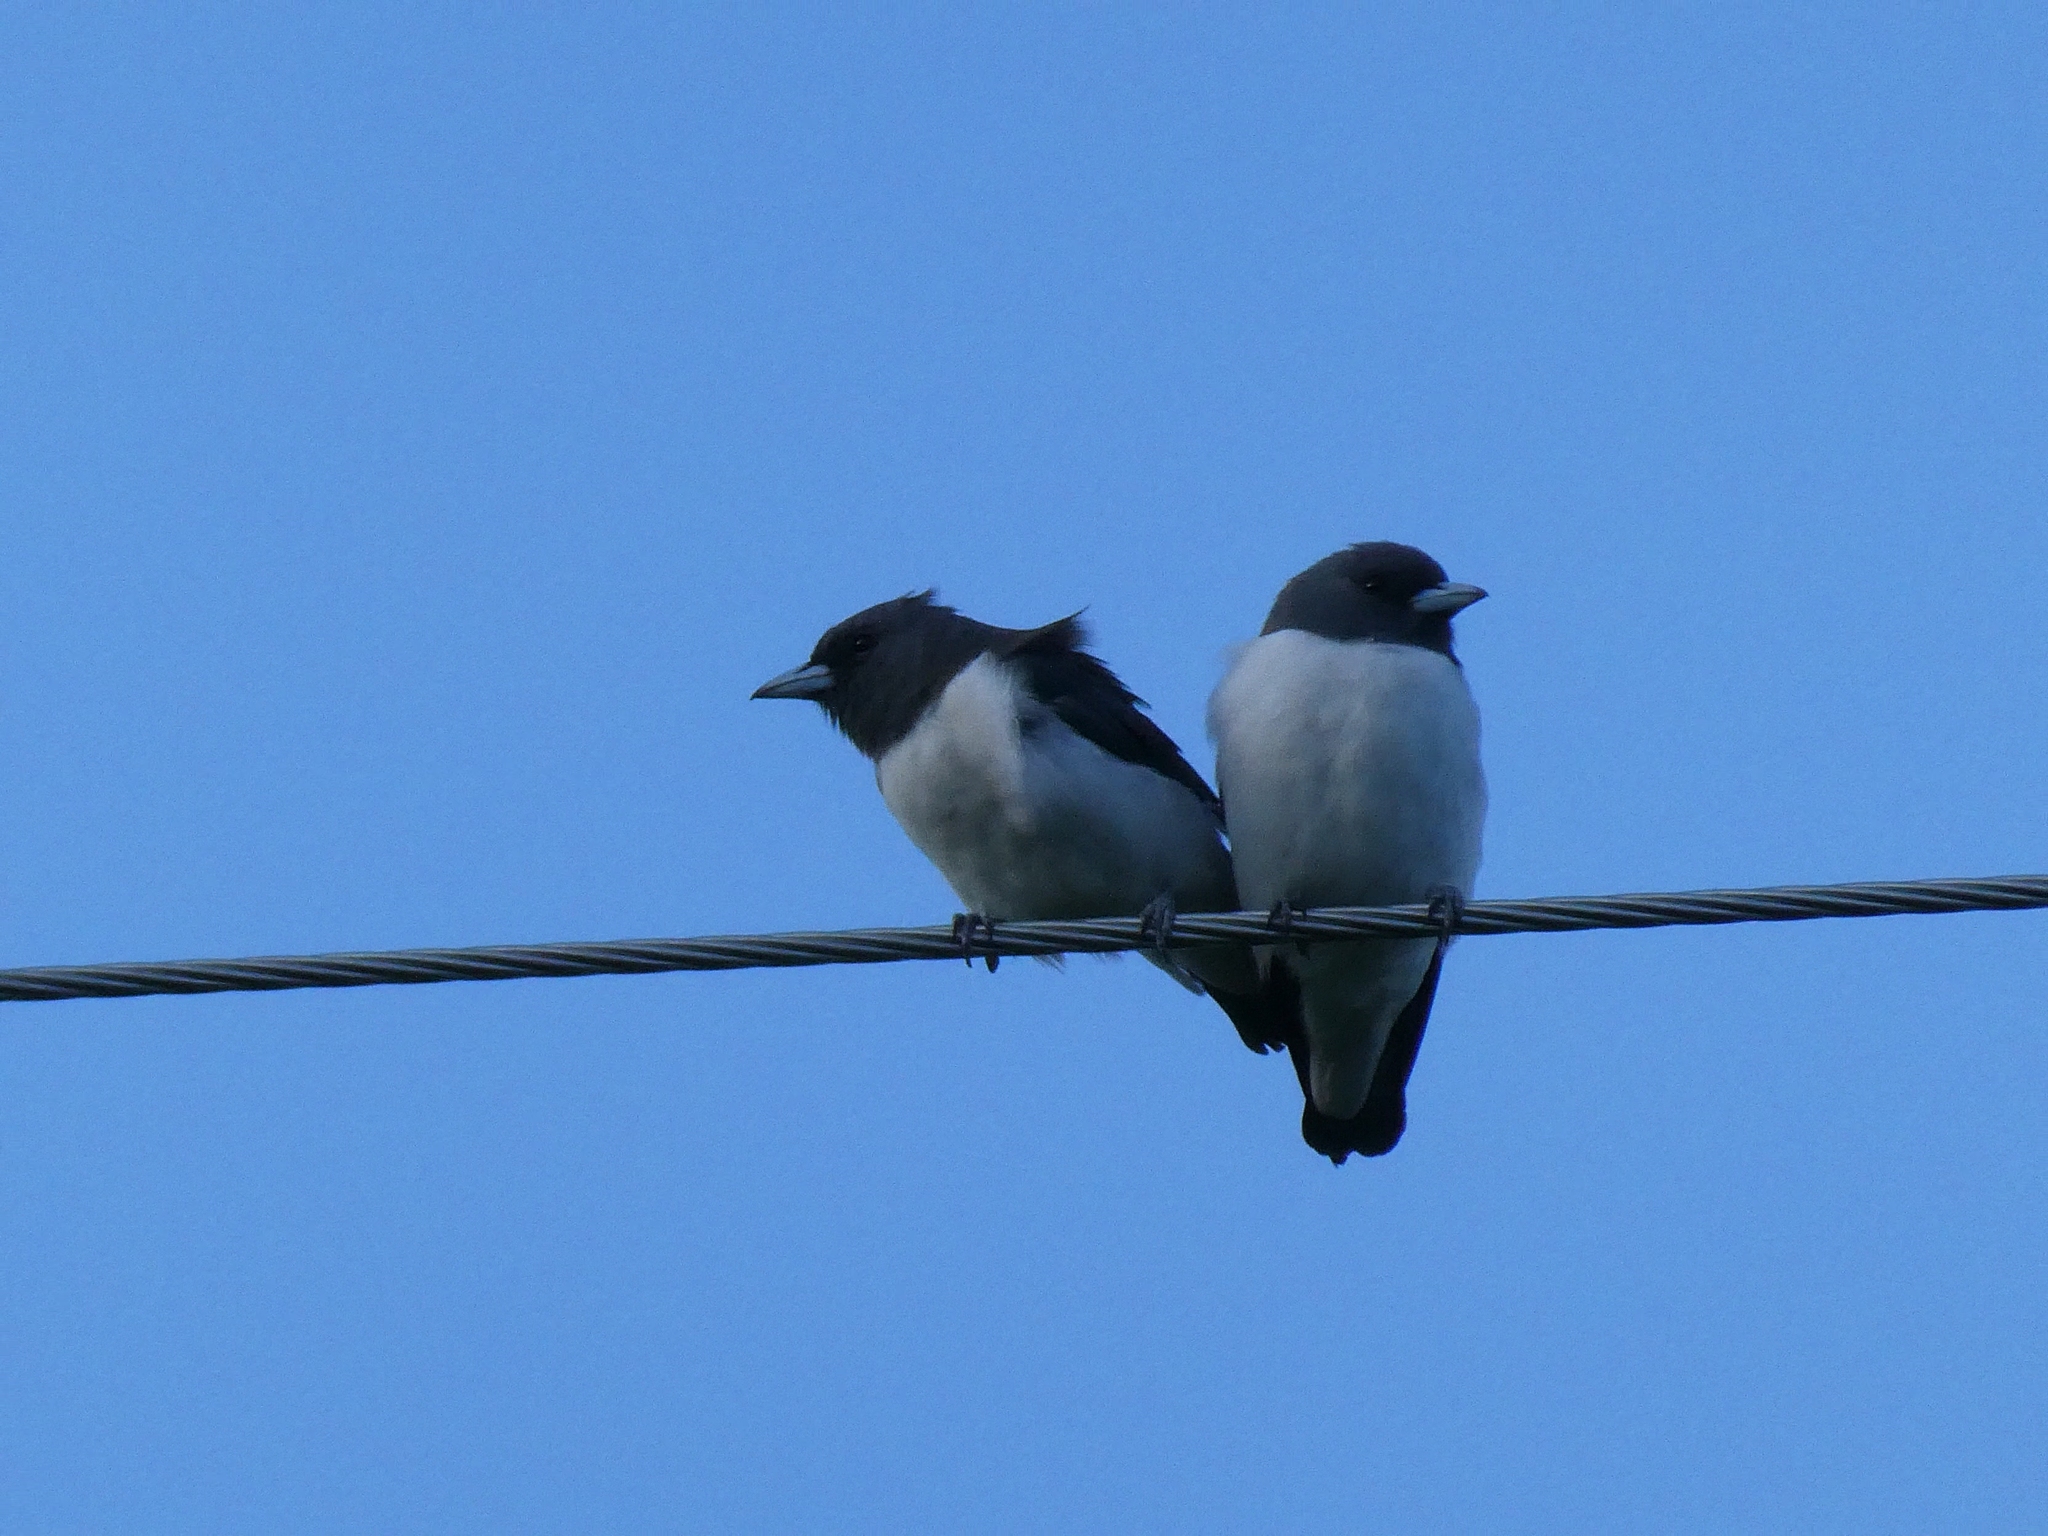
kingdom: Animalia
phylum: Chordata
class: Aves
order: Passeriformes
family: Artamidae
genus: Artamus
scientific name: Artamus leucoryn
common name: White-breasted woodswallow
